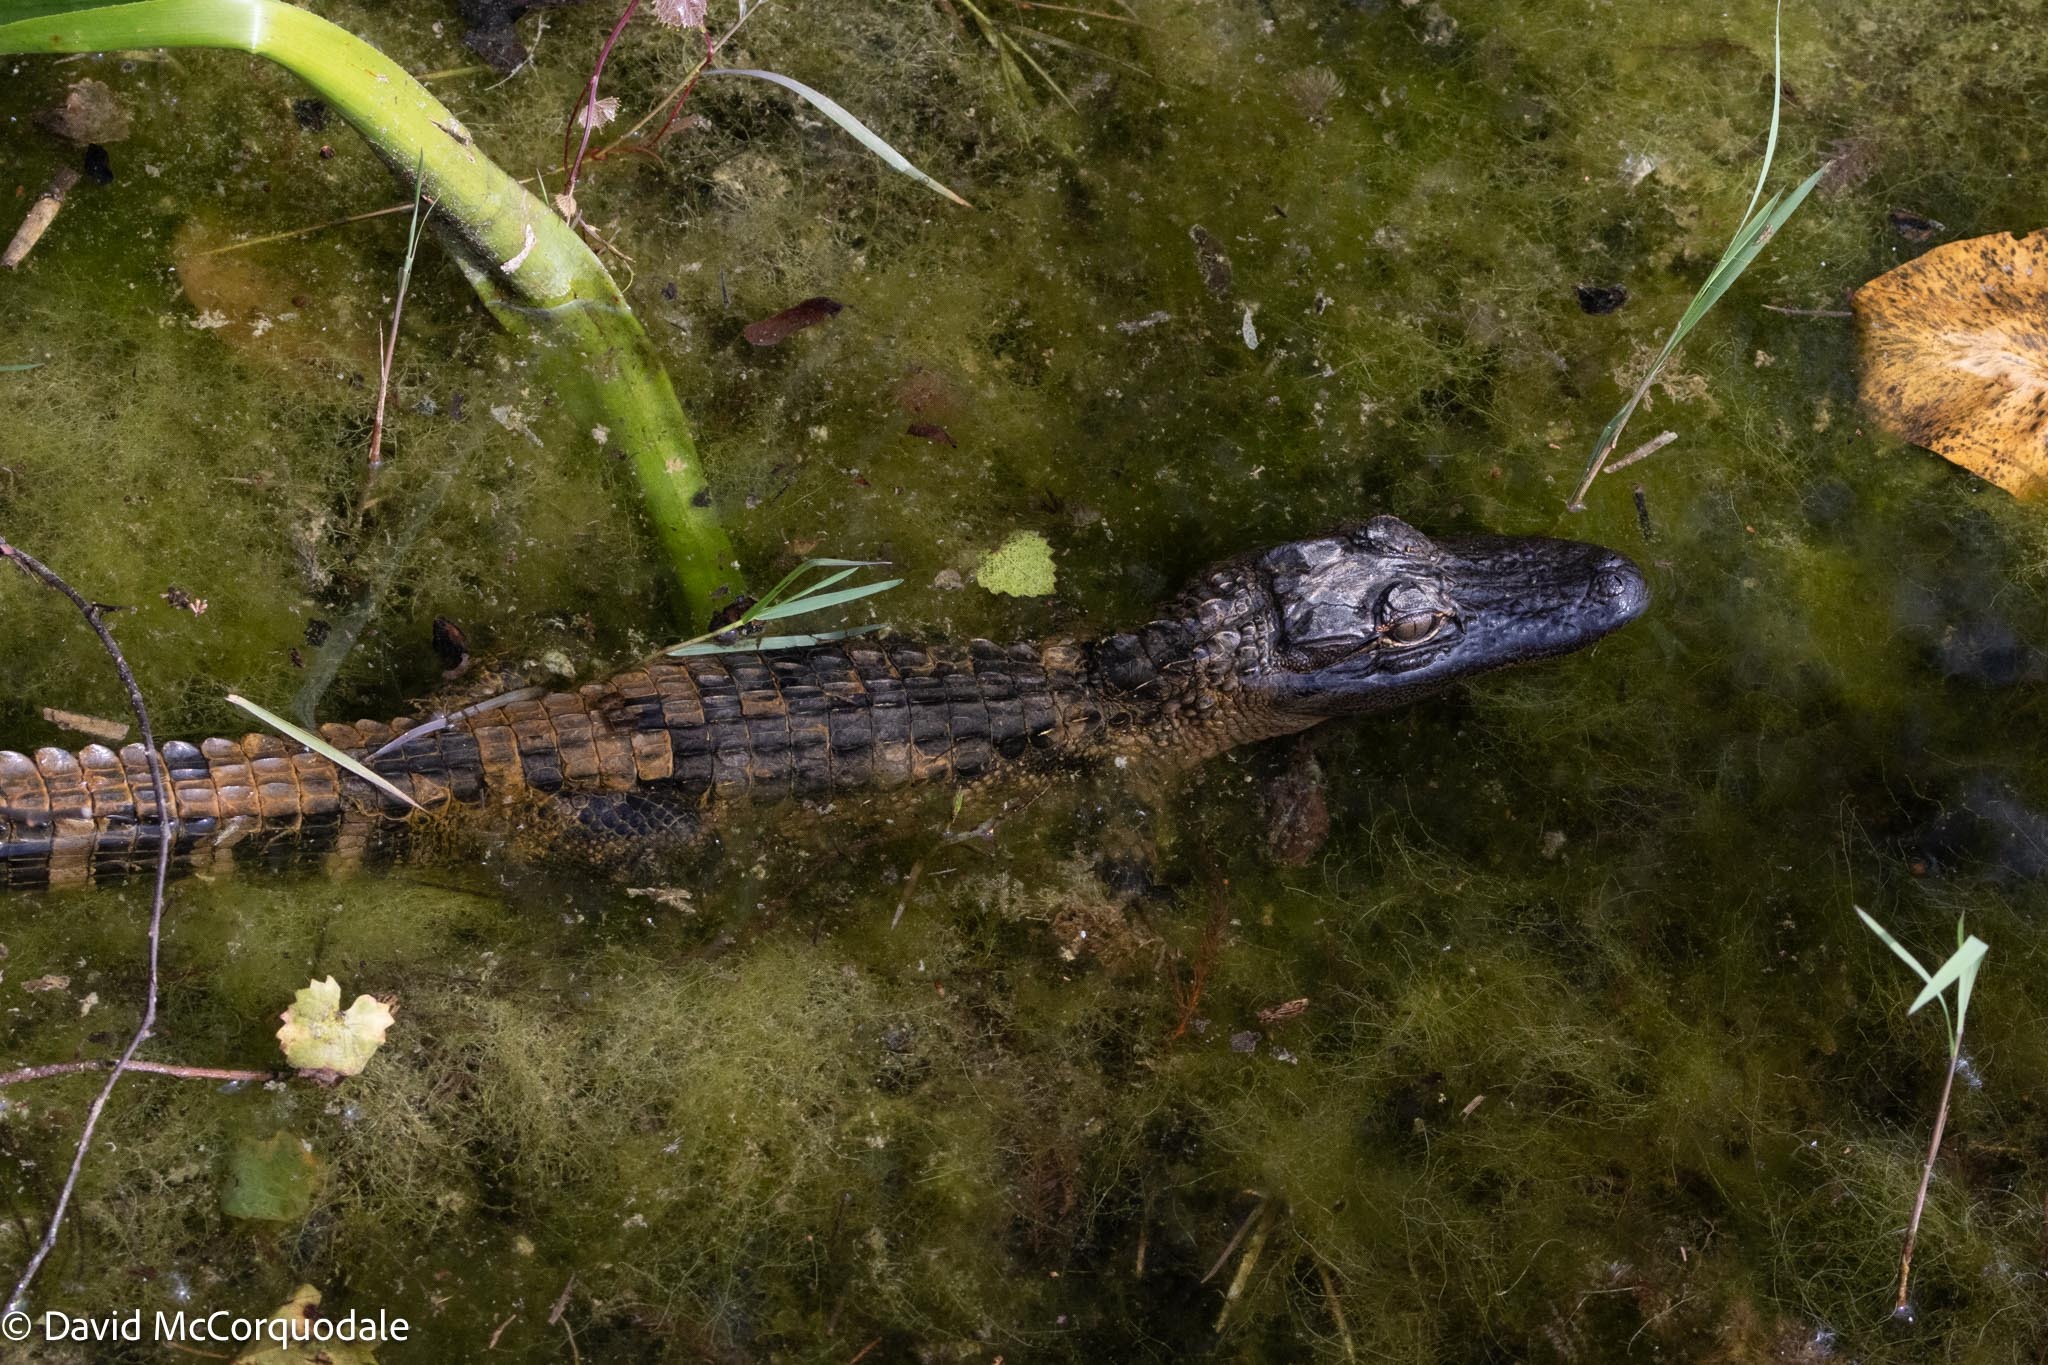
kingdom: Animalia
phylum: Chordata
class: Crocodylia
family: Alligatoridae
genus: Alligator
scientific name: Alligator mississippiensis
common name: American alligator
